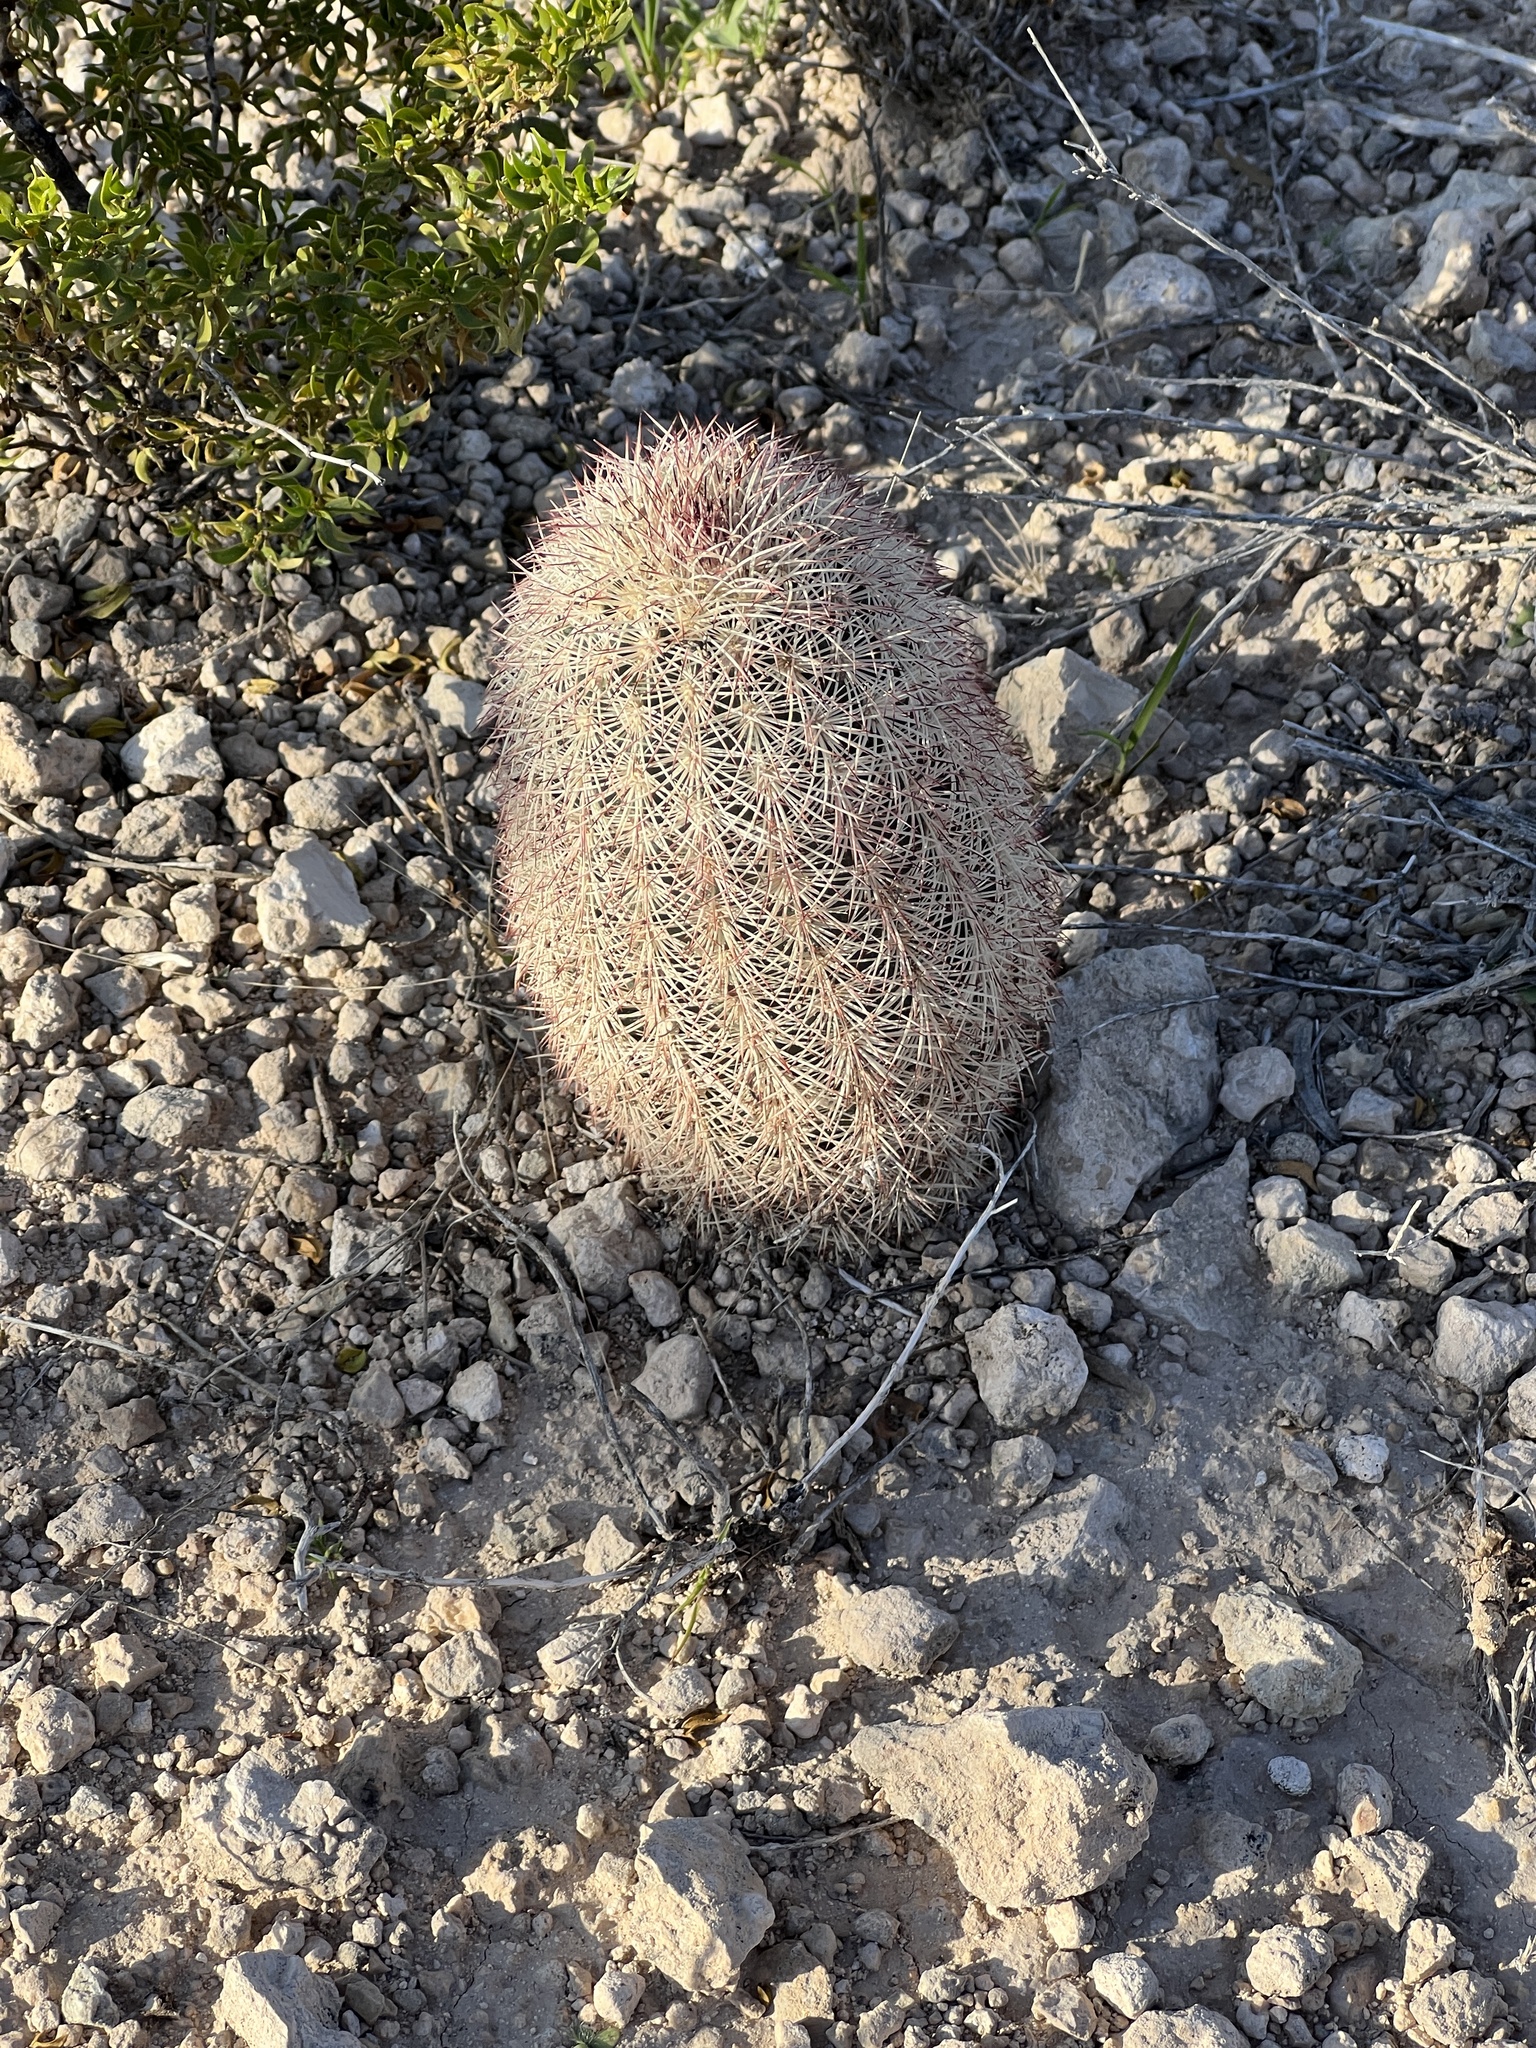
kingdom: Plantae
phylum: Tracheophyta
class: Magnoliopsida
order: Caryophyllales
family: Cactaceae
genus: Echinocereus
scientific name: Echinocereus dasyacanthus
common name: Spiny hedgehog cactus
